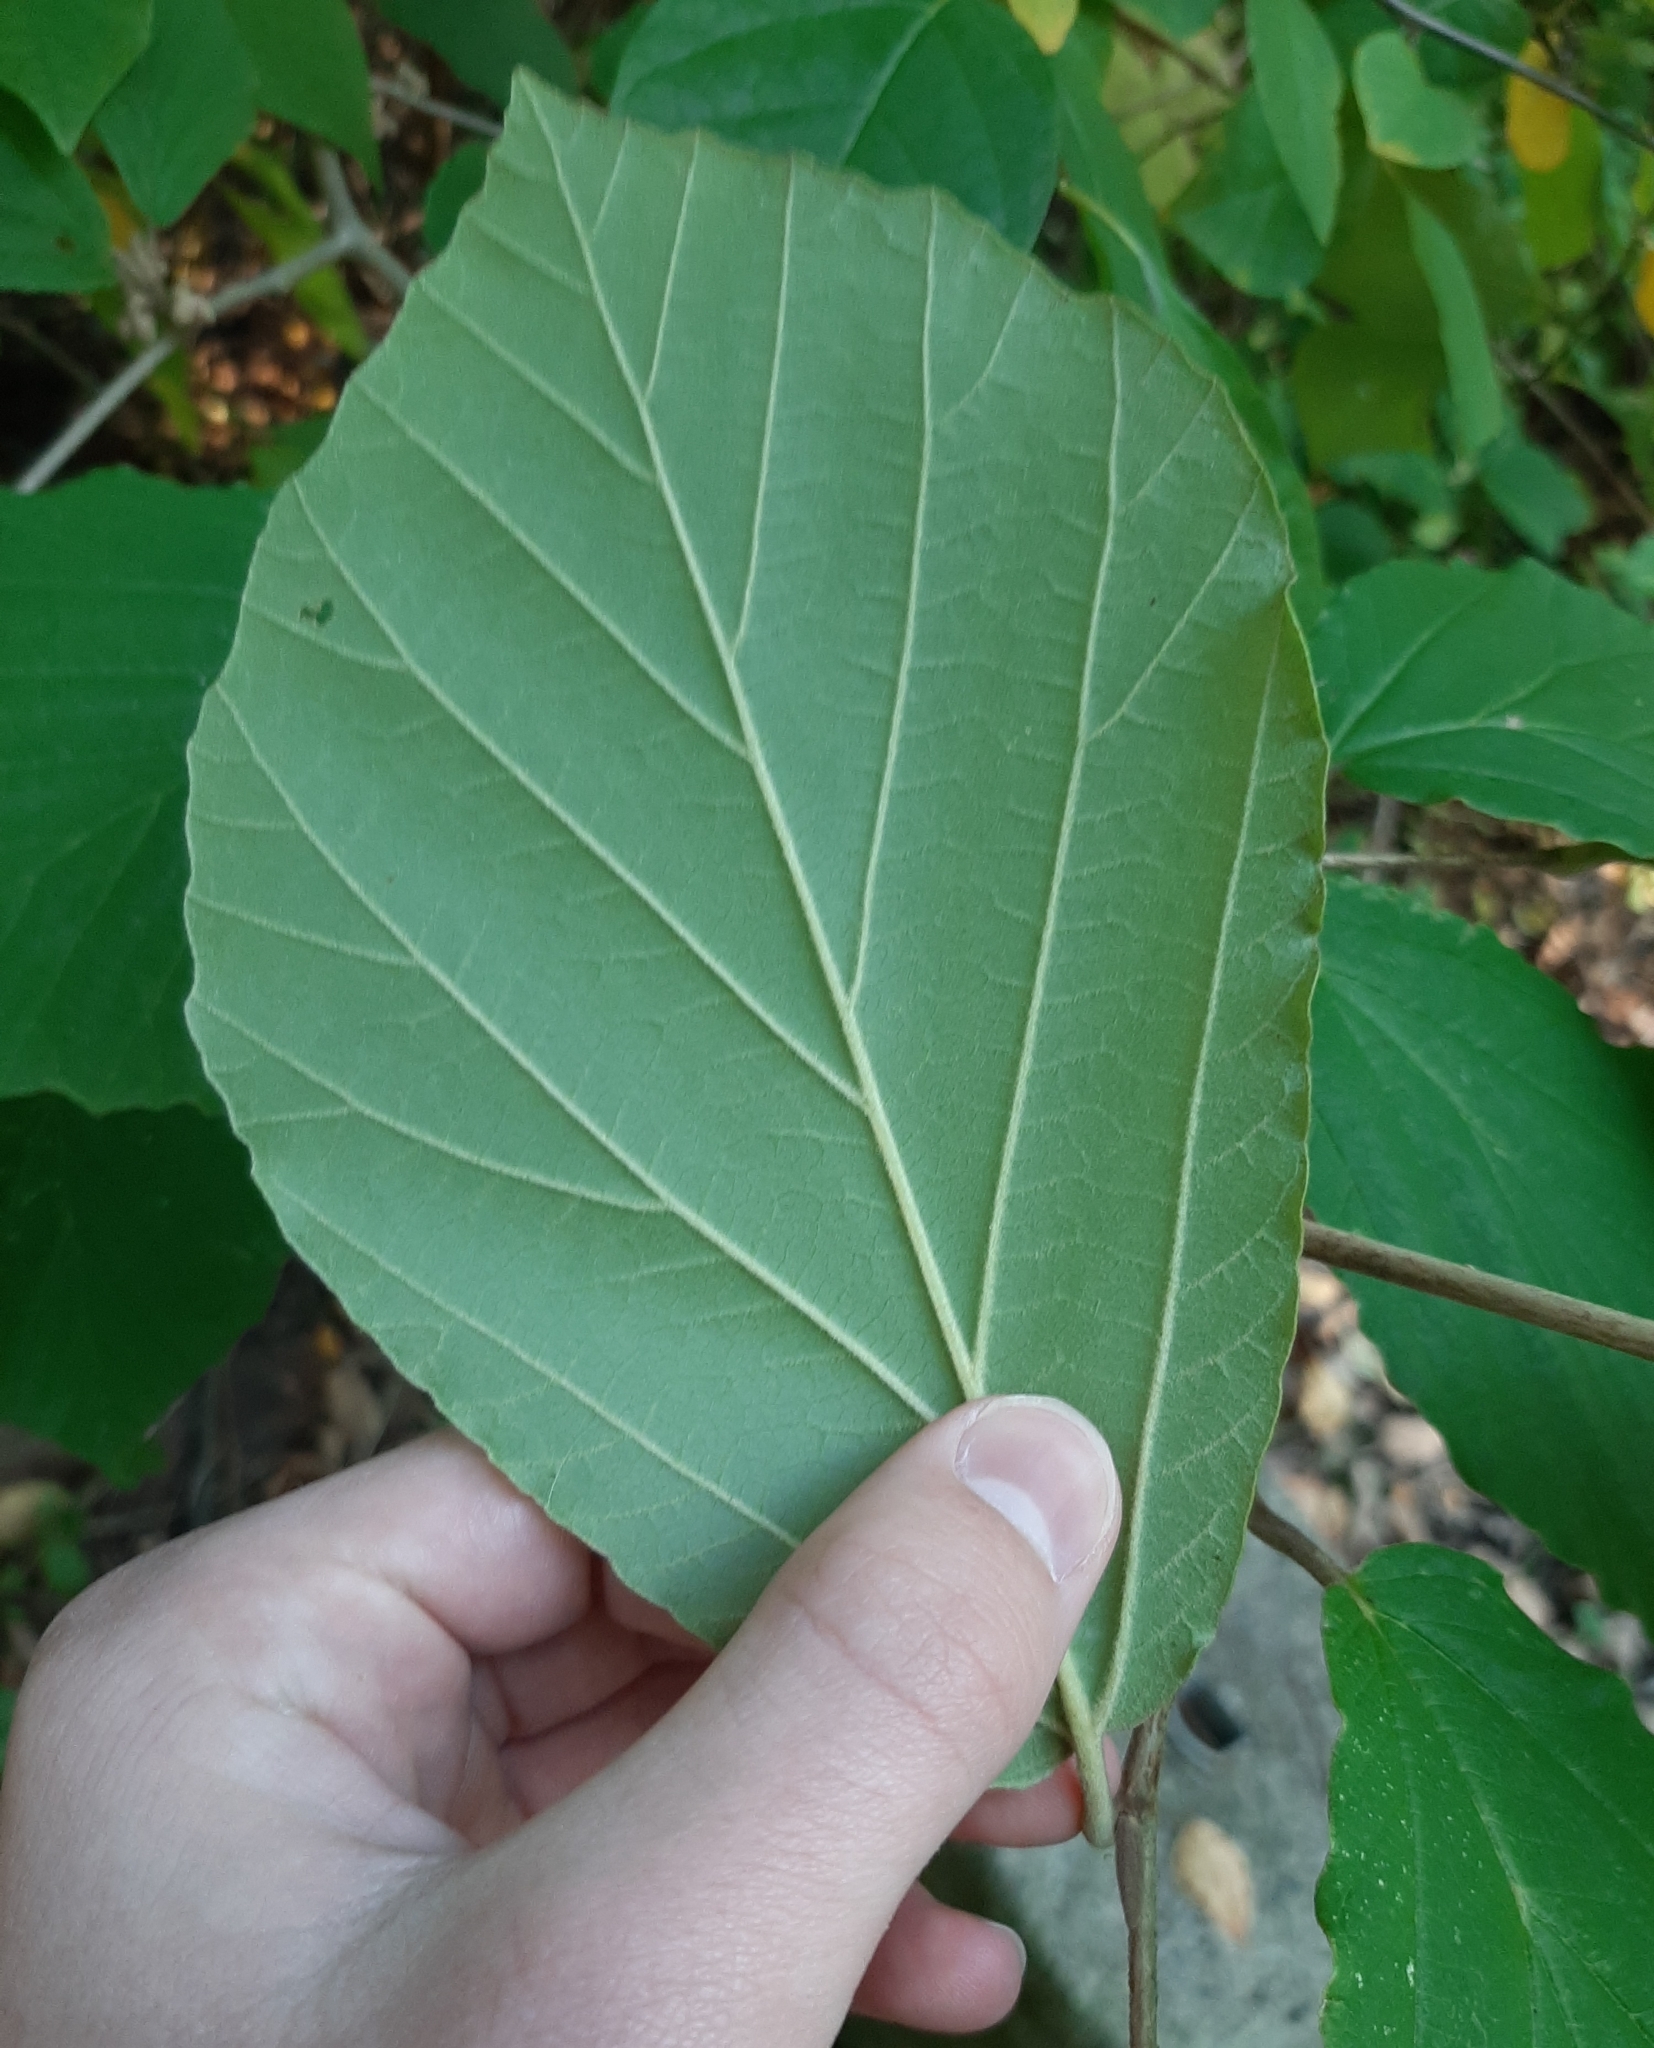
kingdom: Plantae
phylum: Tracheophyta
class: Magnoliopsida
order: Saxifragales
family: Hamamelidaceae
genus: Hamamelis
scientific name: Hamamelis virginiana
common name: Witch-hazel
